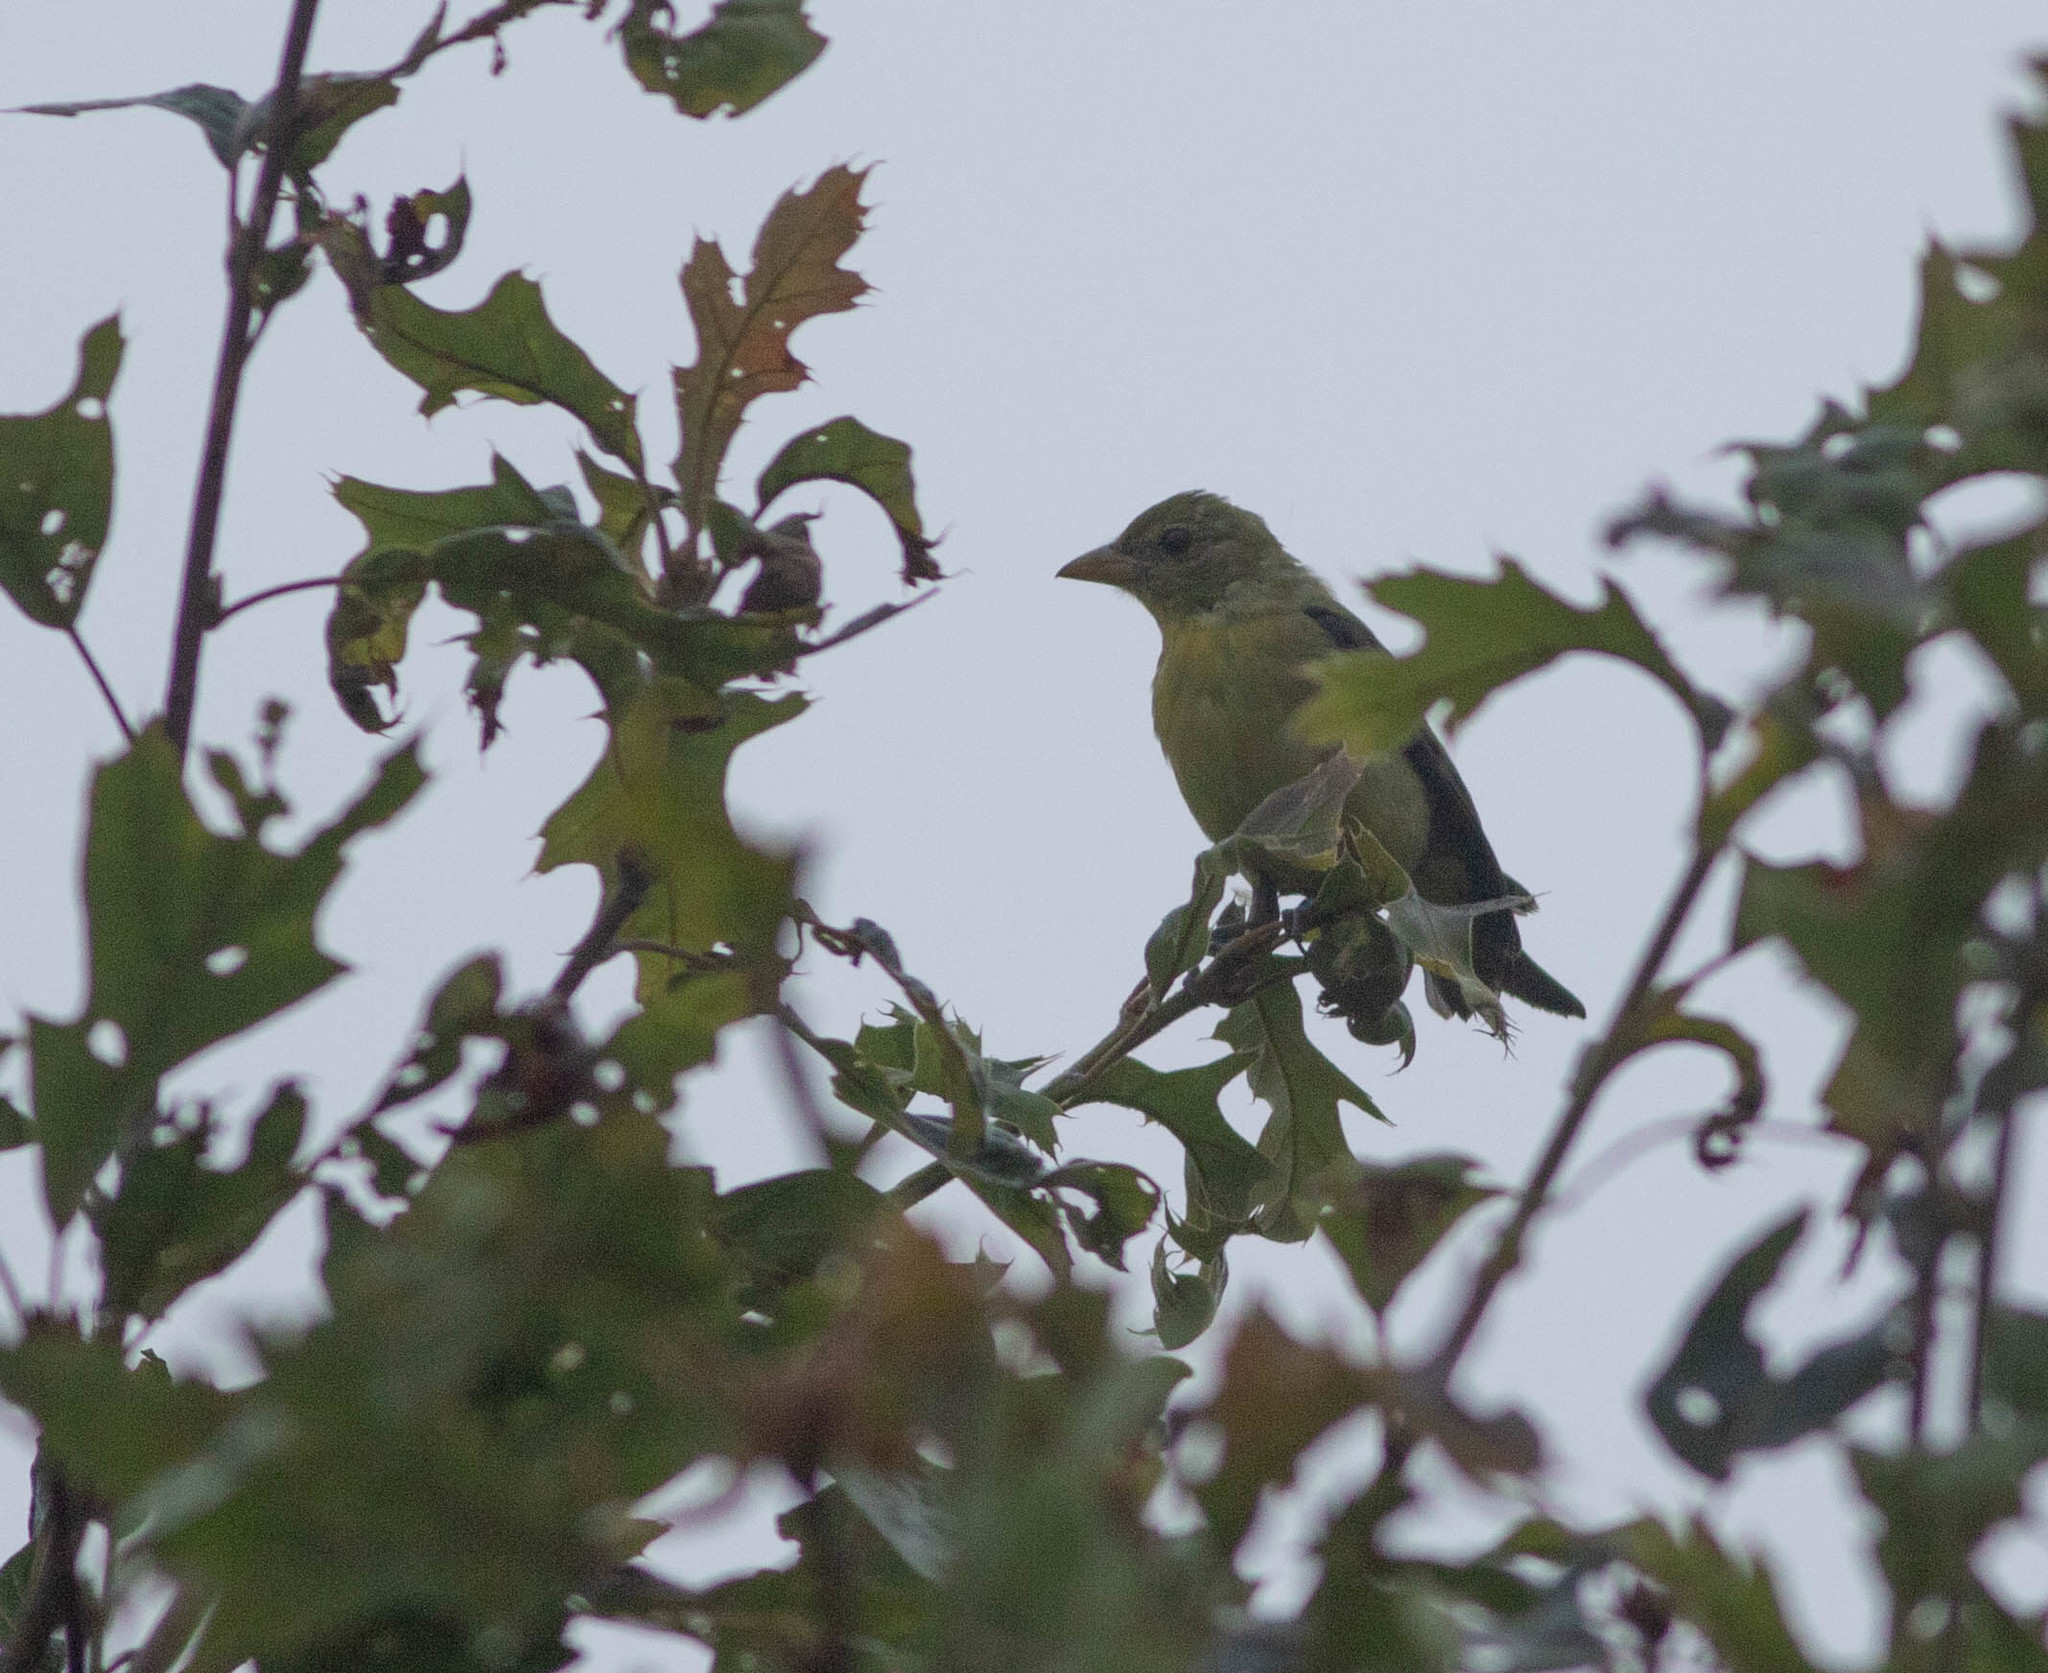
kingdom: Animalia
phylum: Chordata
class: Aves
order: Passeriformes
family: Cardinalidae
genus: Piranga
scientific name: Piranga olivacea
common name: Scarlet tanager
